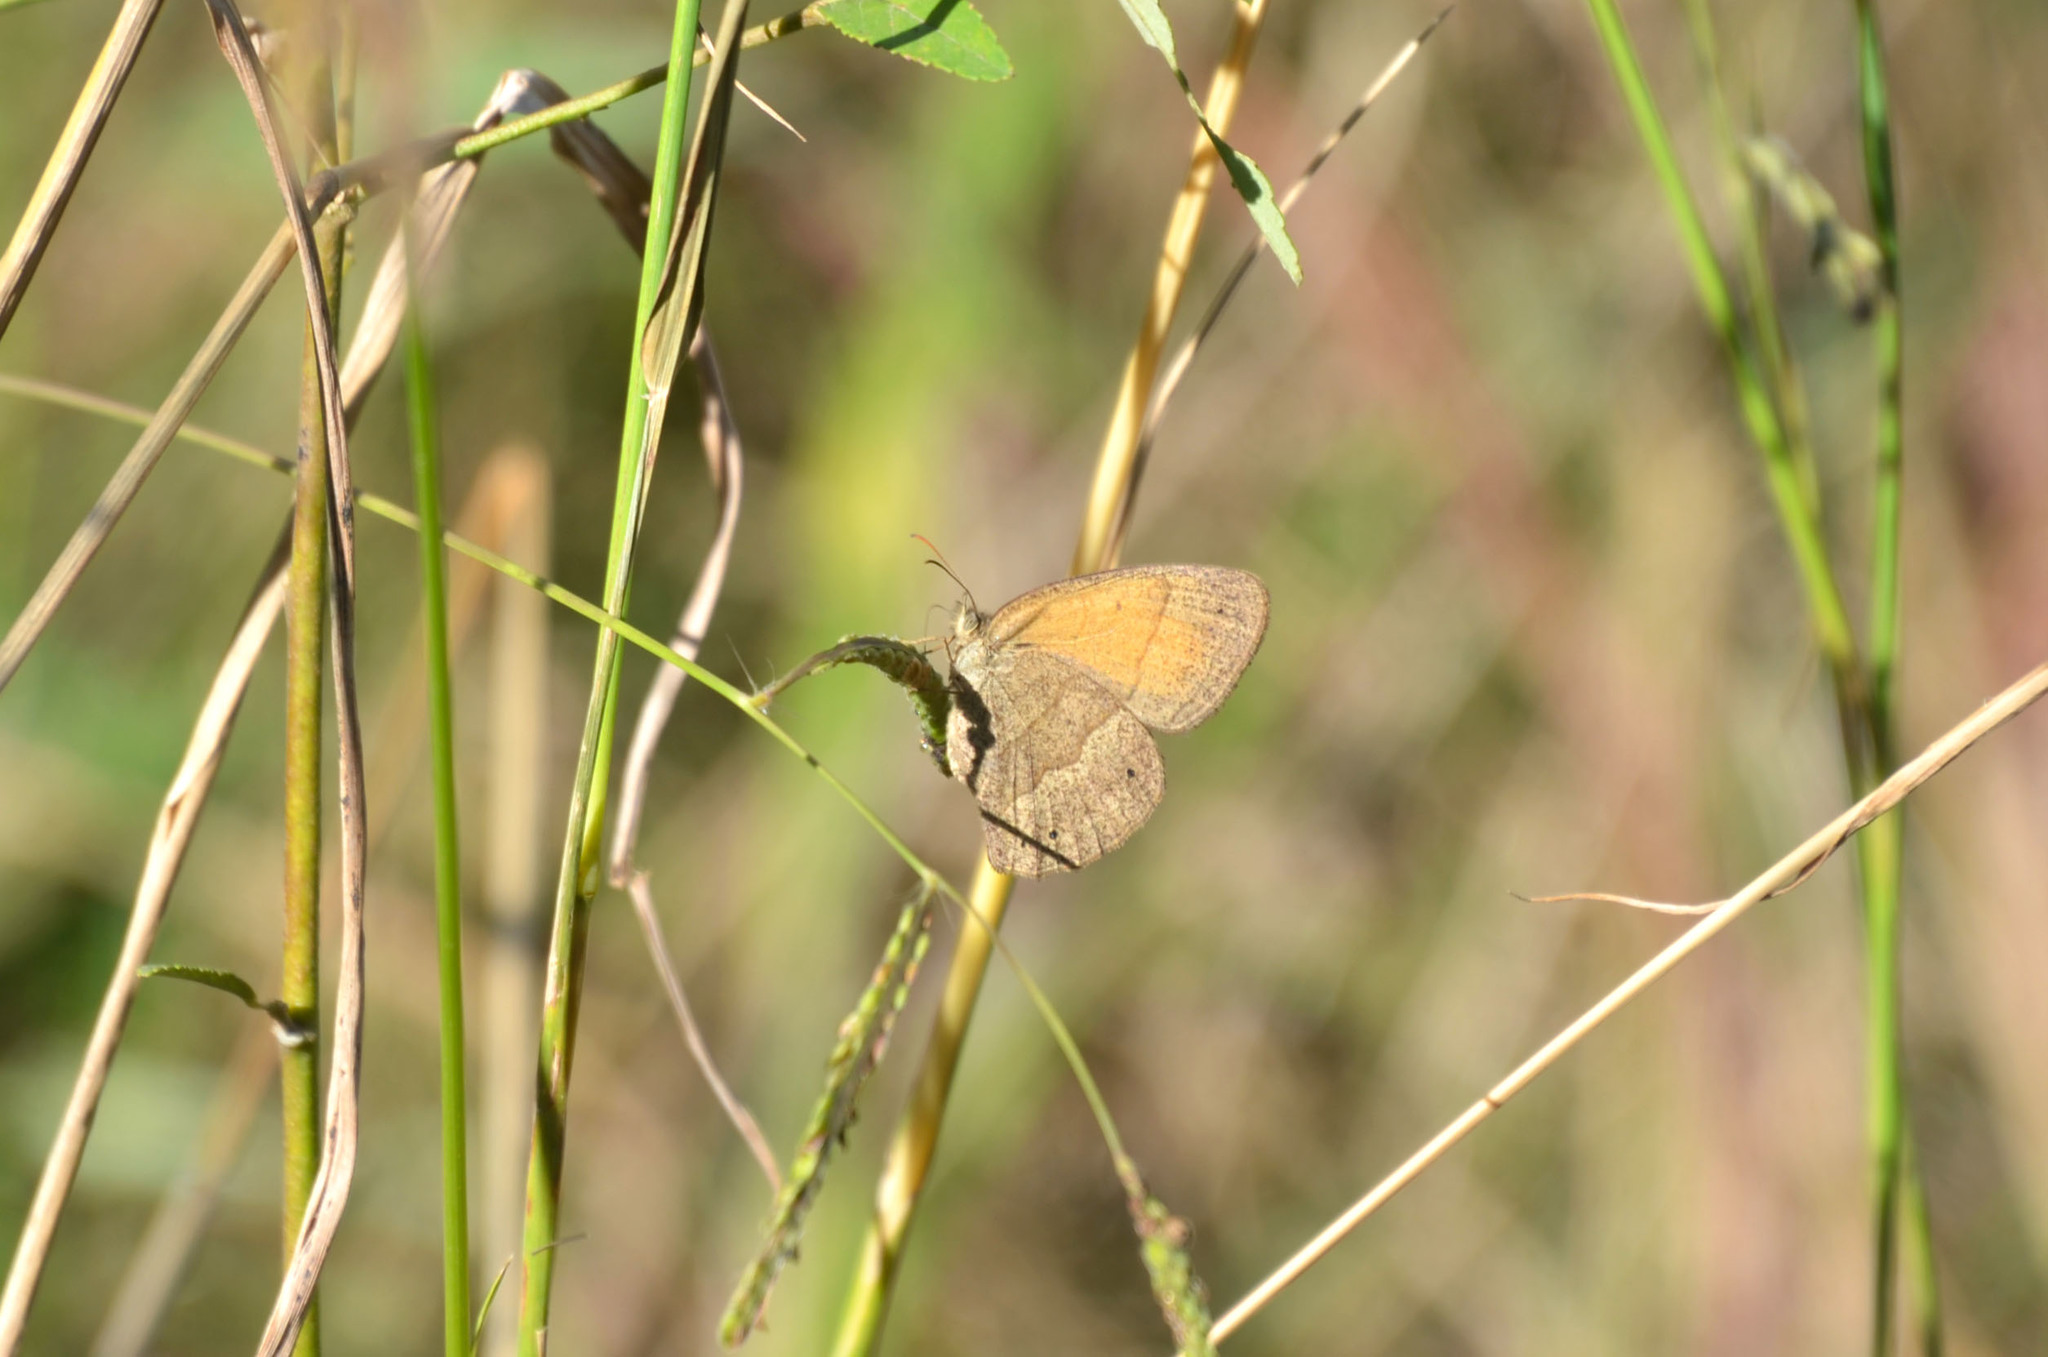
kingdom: Animalia
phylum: Arthropoda
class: Insecta
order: Lepidoptera
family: Nymphalidae
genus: Yphthimoides
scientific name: Yphthimoides celmis
